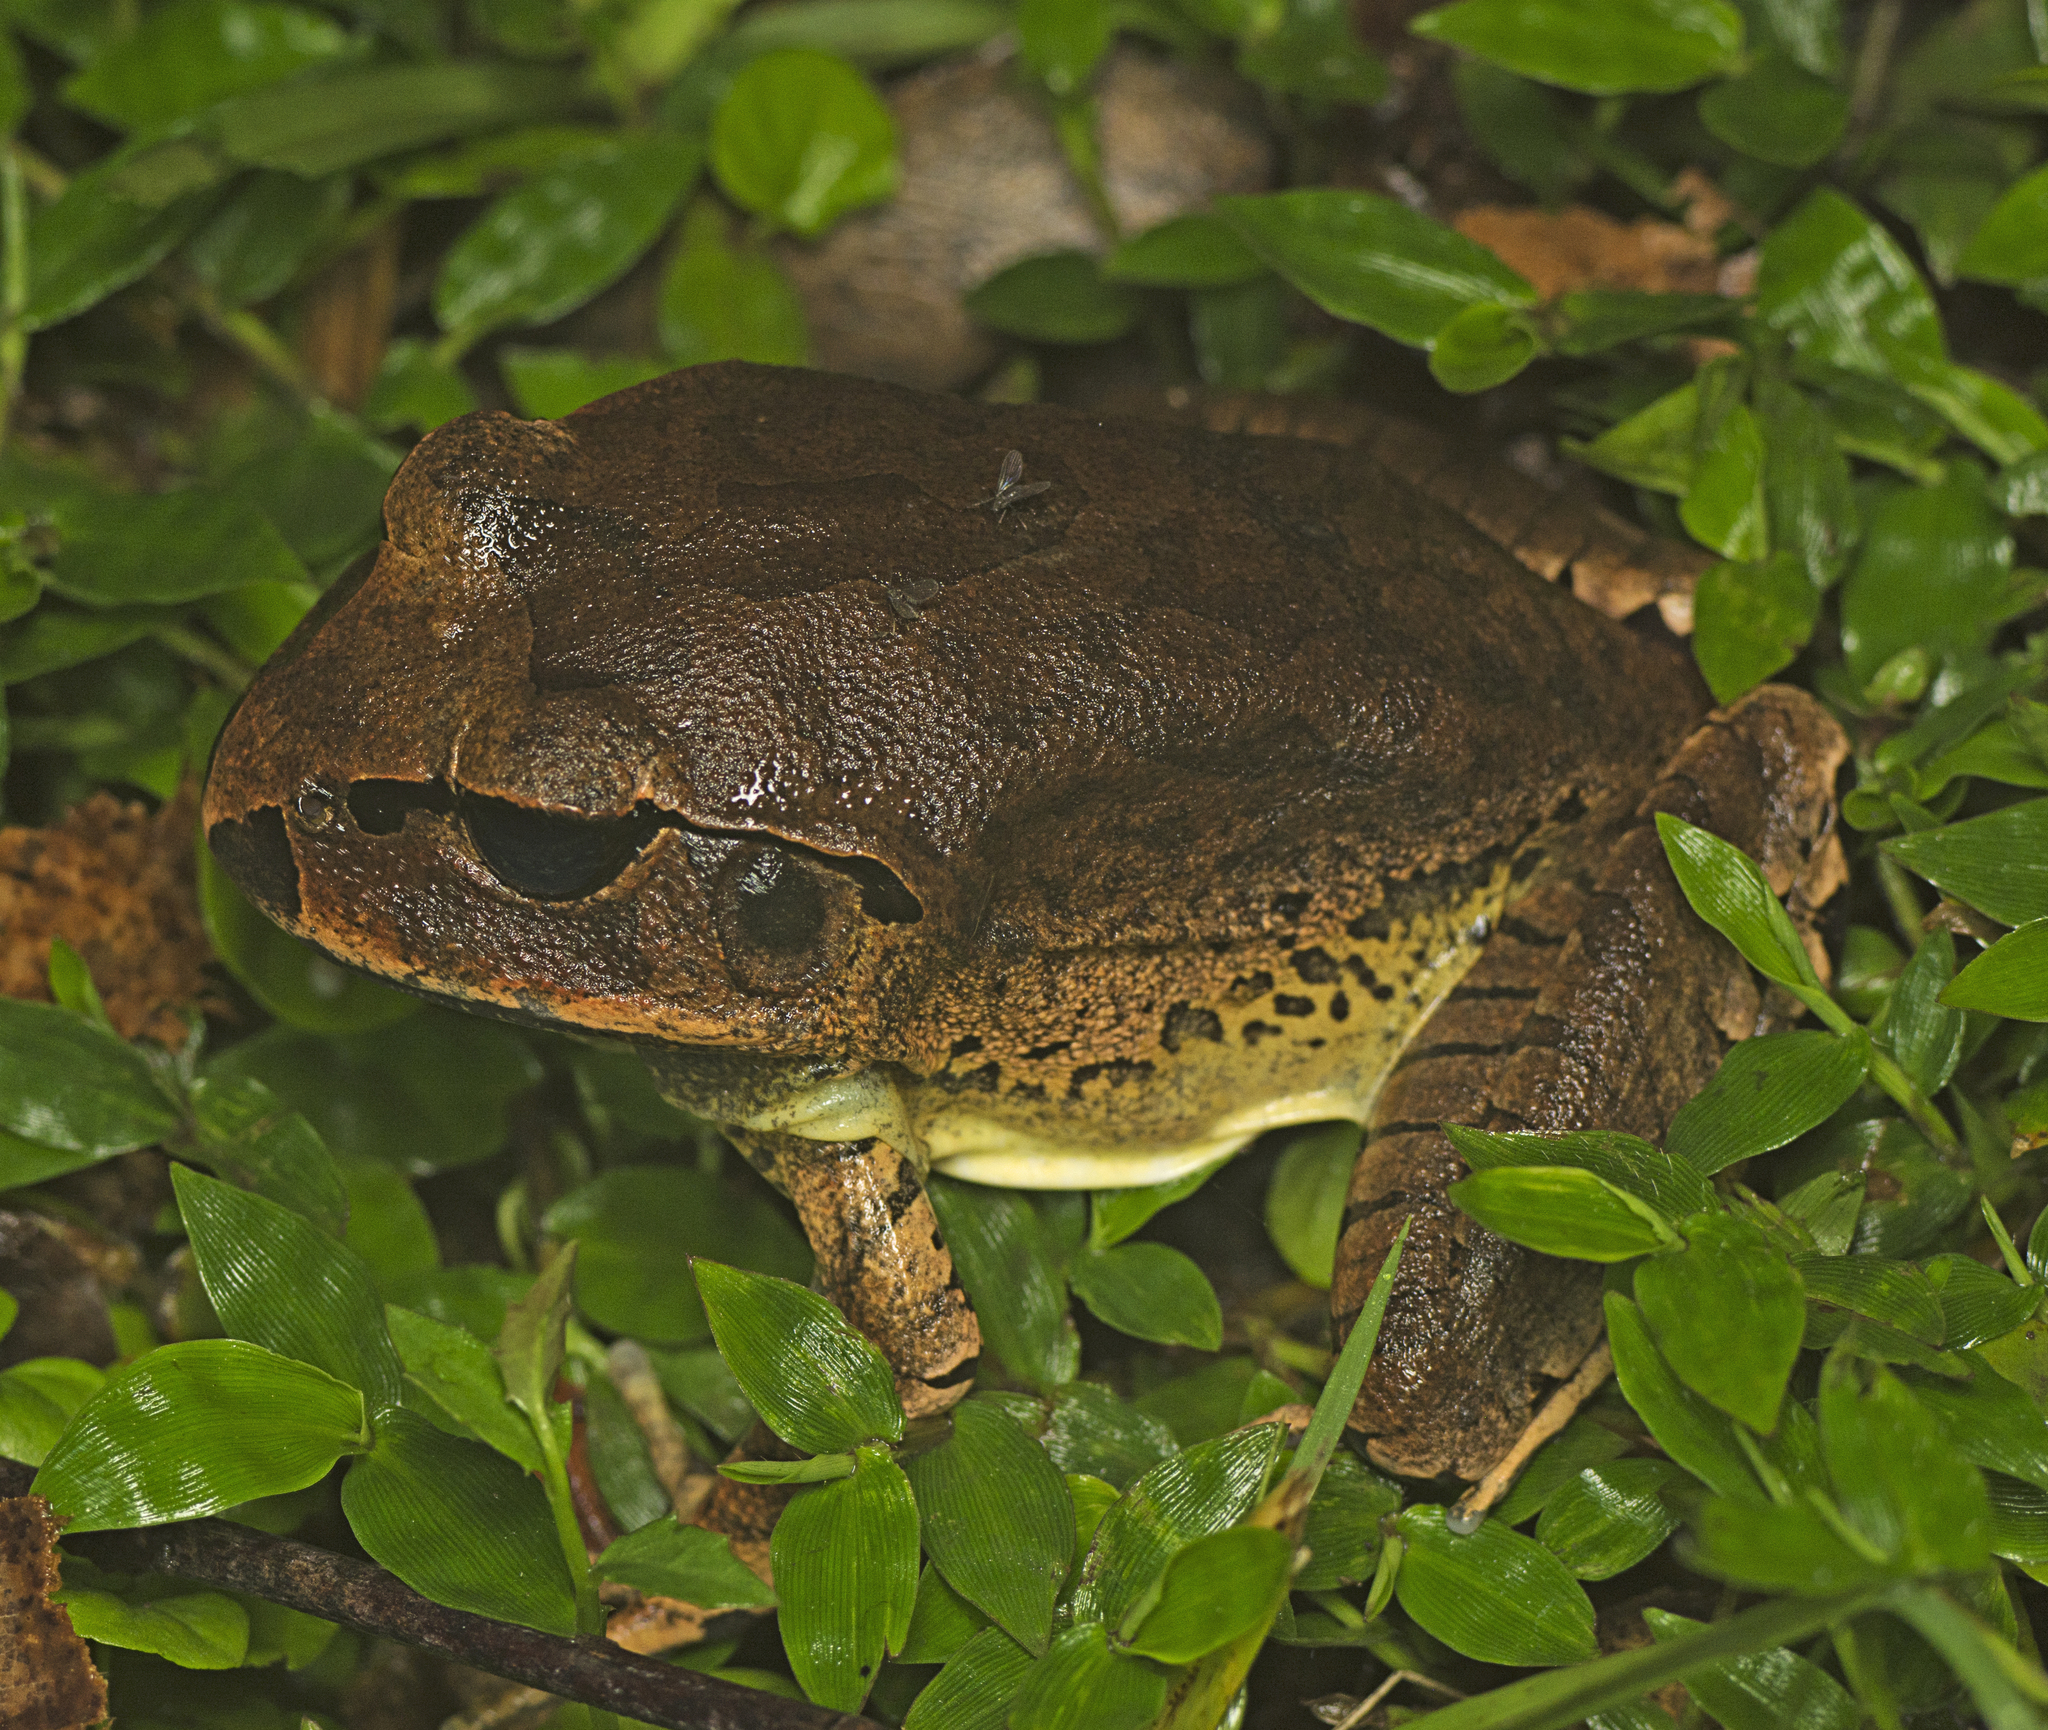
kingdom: Animalia
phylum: Chordata
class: Amphibia
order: Anura
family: Myobatrachidae
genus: Mixophyes
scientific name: Mixophyes fasciolatus
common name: Great barred river-frog
